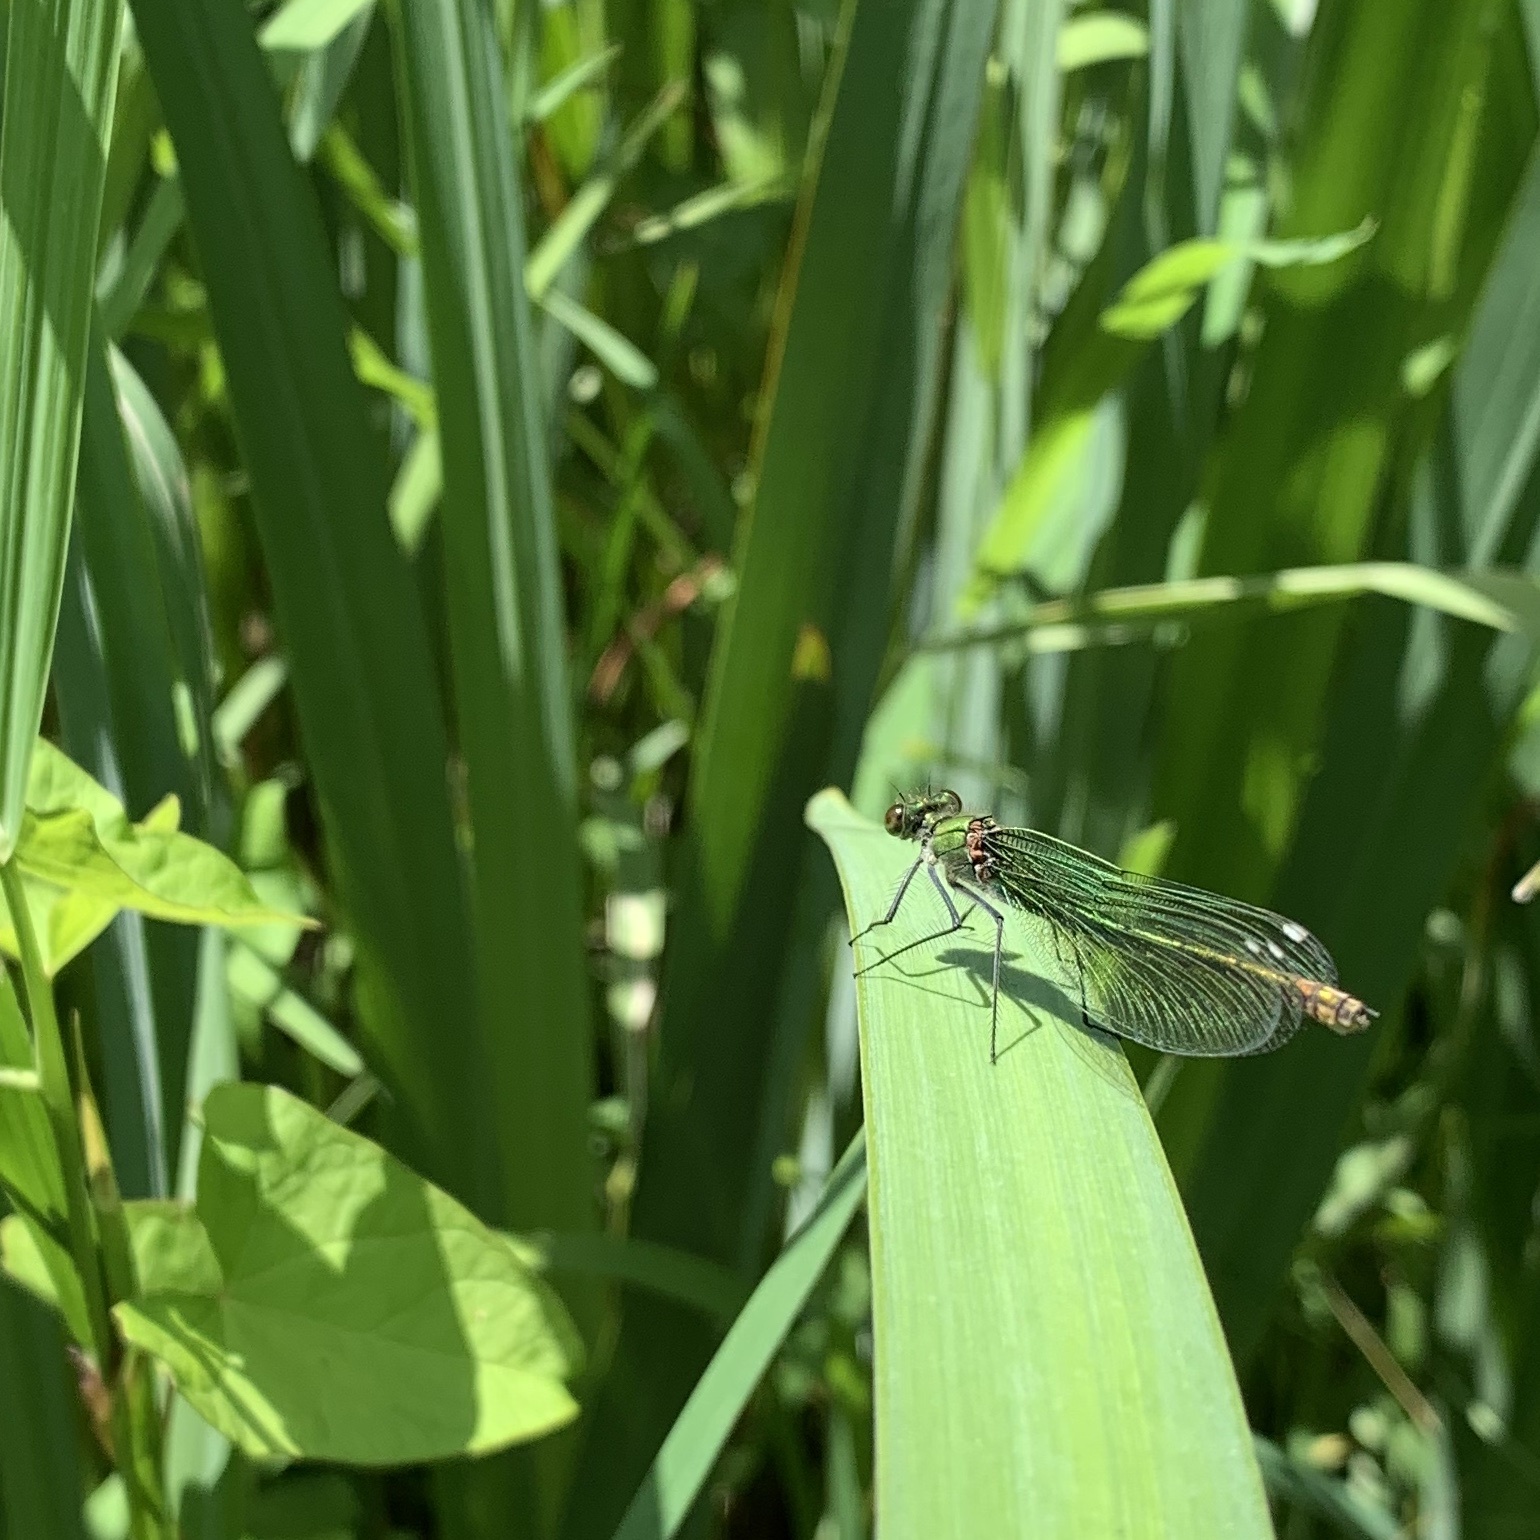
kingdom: Animalia
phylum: Arthropoda
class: Insecta
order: Odonata
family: Calopterygidae
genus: Calopteryx
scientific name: Calopteryx splendens
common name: Banded demoiselle
